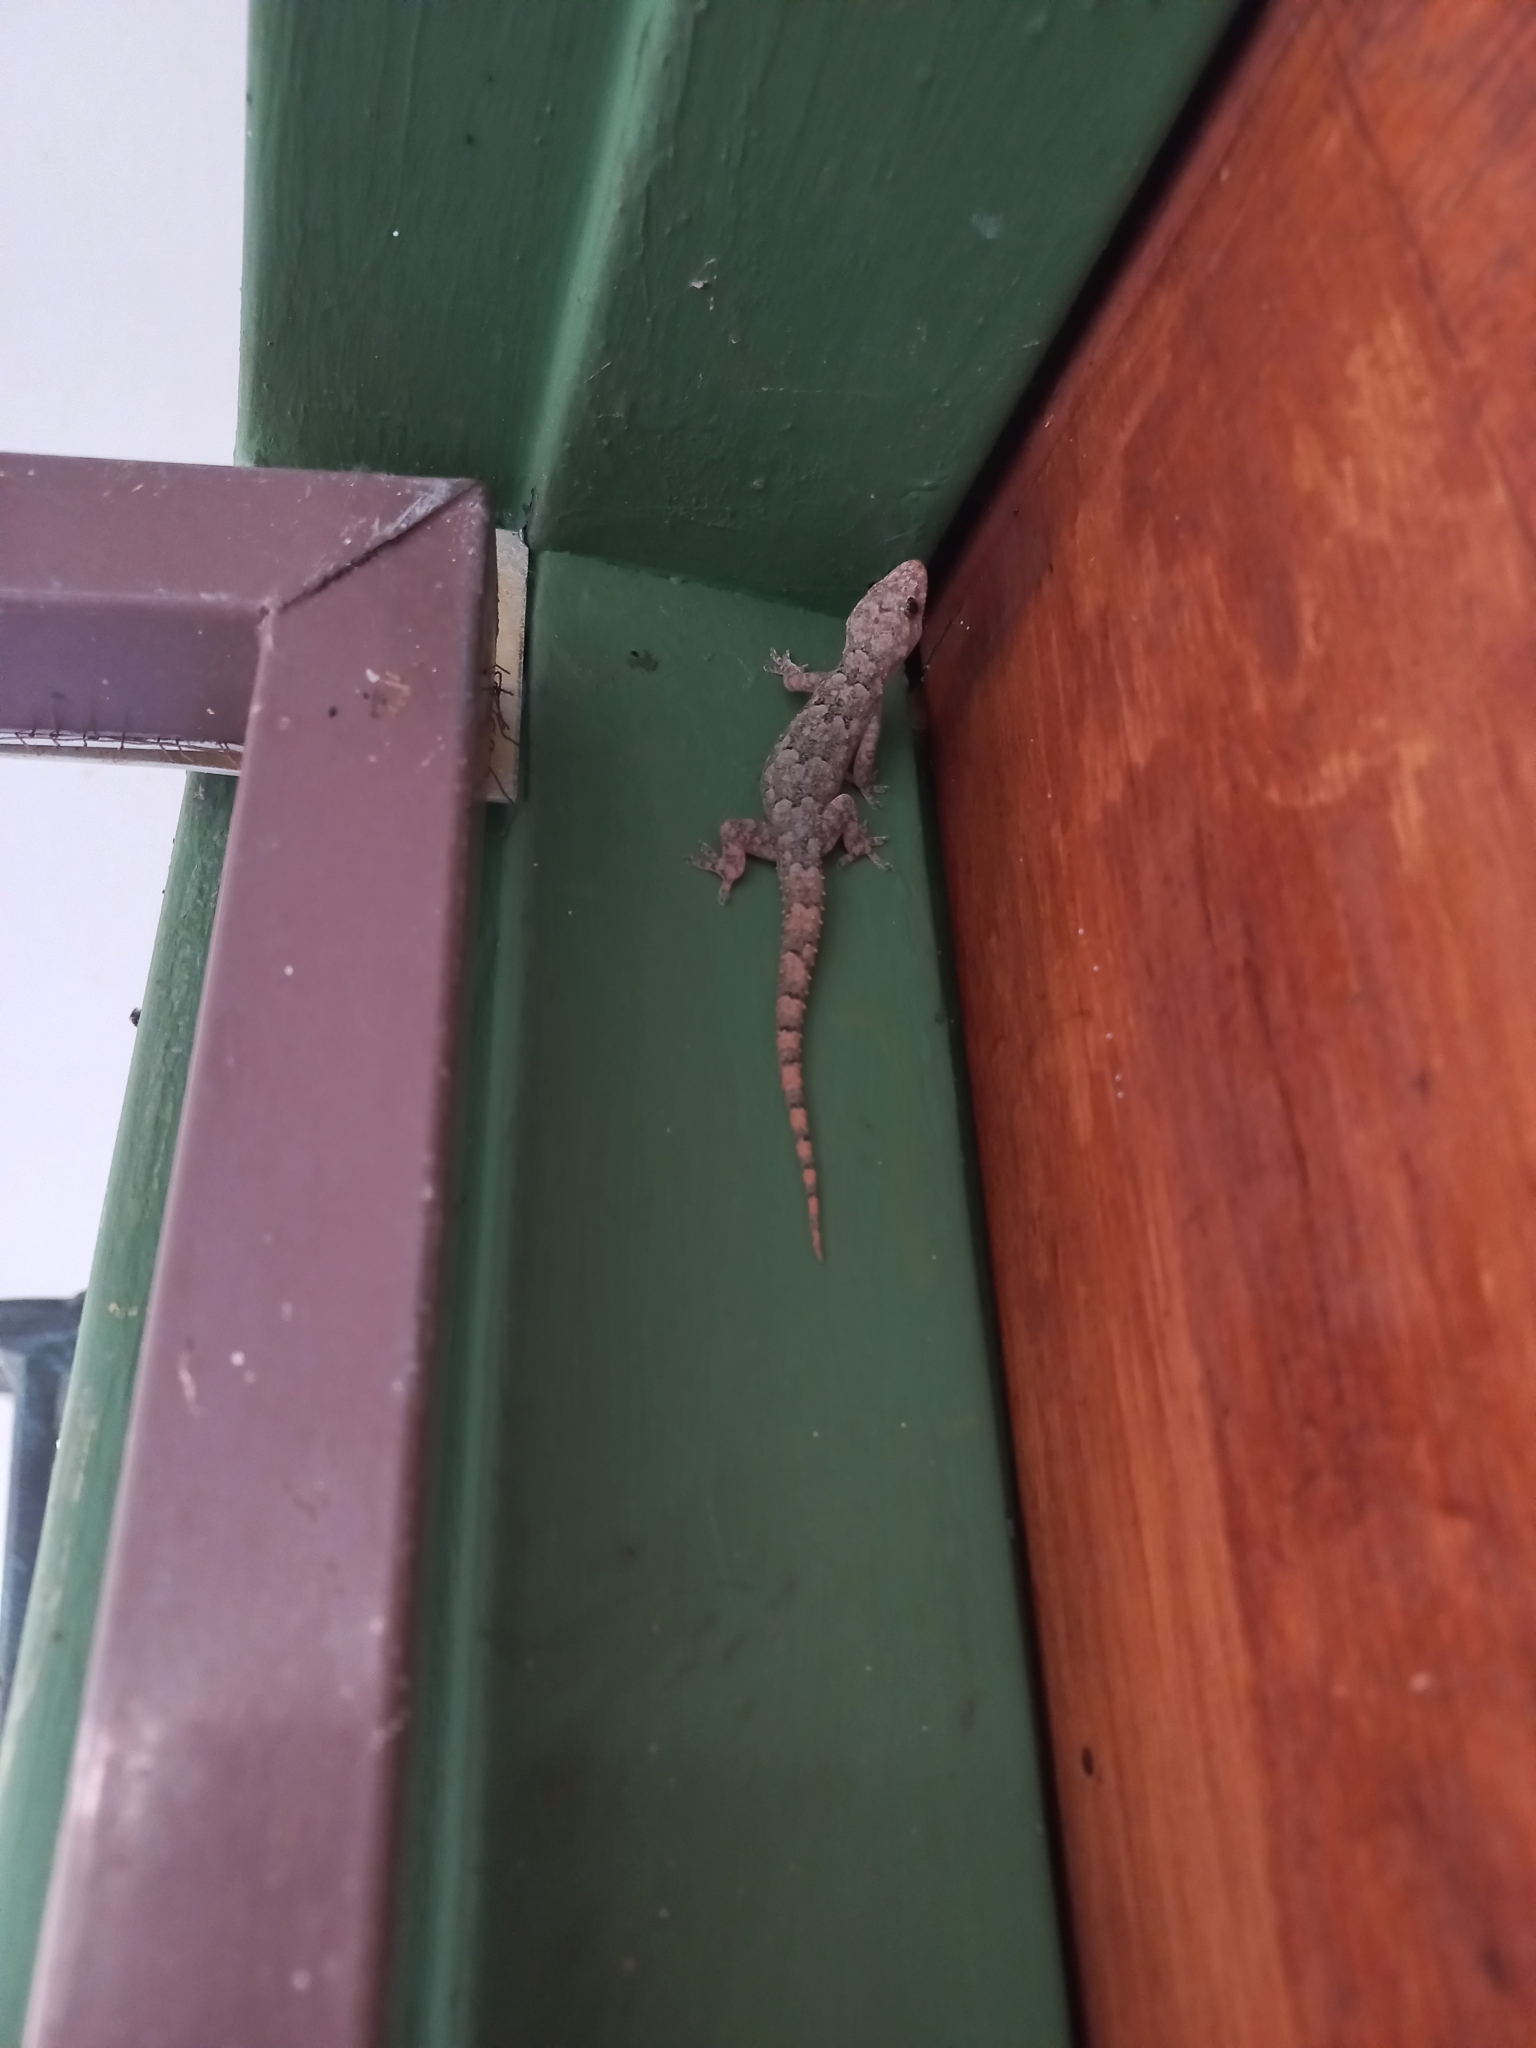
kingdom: Animalia
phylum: Chordata
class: Squamata
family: Gekkonidae
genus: Hemidactylus
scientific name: Hemidactylus mabouia
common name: House gecko
